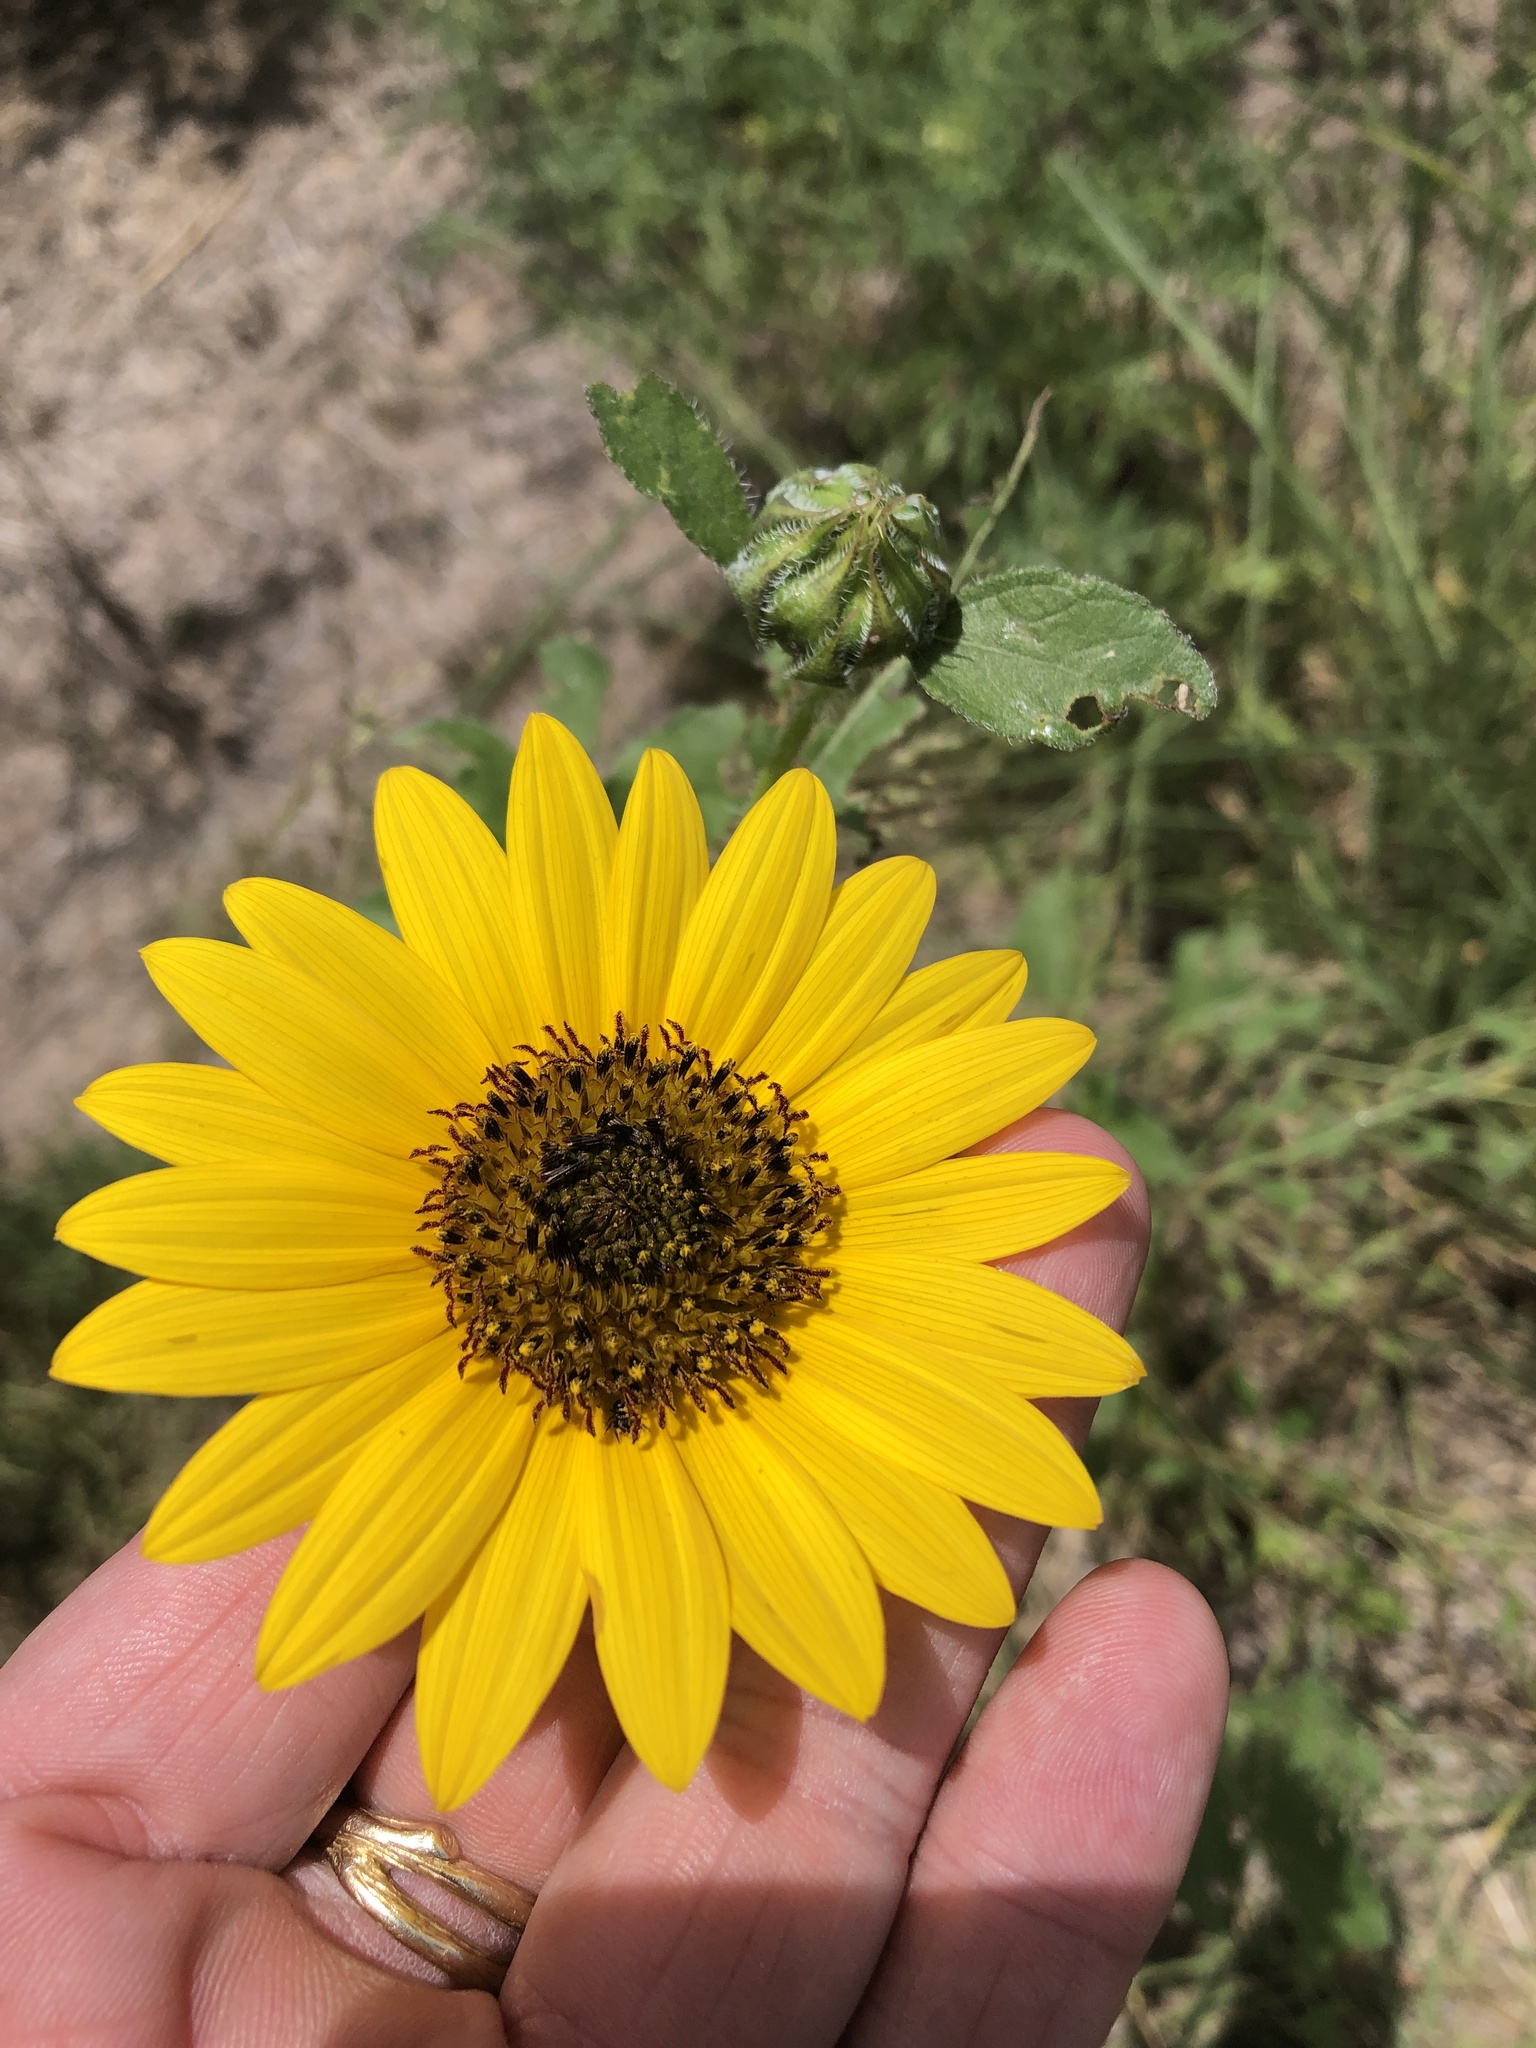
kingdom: Plantae
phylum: Tracheophyta
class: Magnoliopsida
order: Asterales
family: Asteraceae
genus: Helianthus
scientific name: Helianthus annuus
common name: Sunflower
